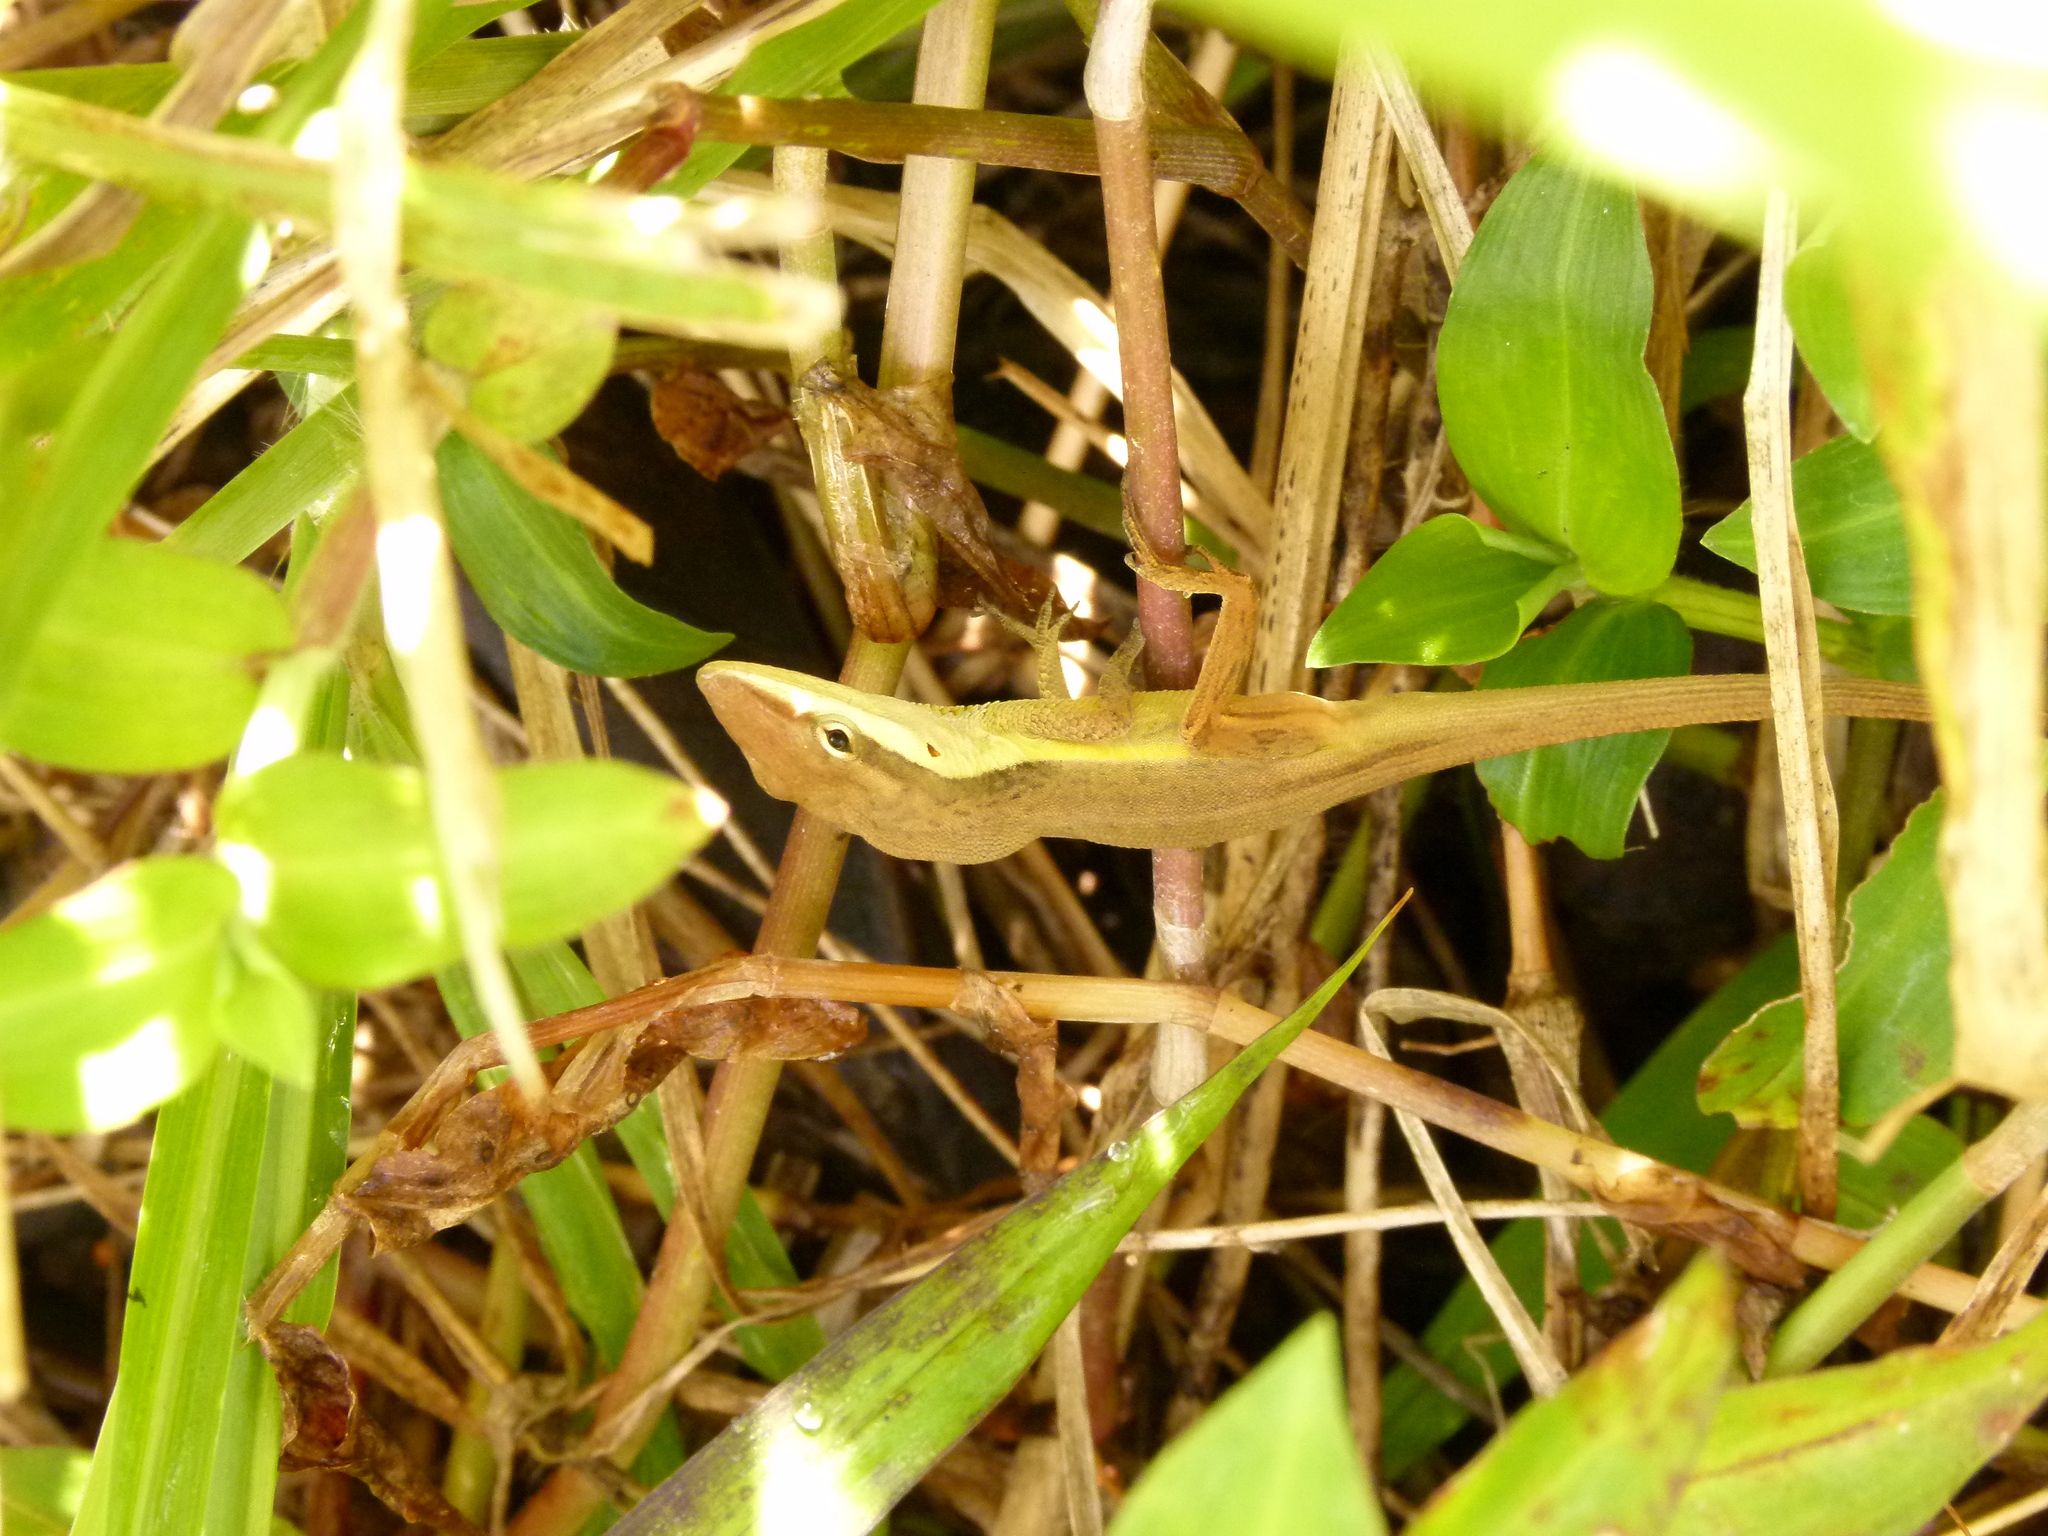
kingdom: Animalia
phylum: Chordata
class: Squamata
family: Dactyloidae
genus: Anolis
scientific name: Anolis pulchellus
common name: Puerto rican anole
